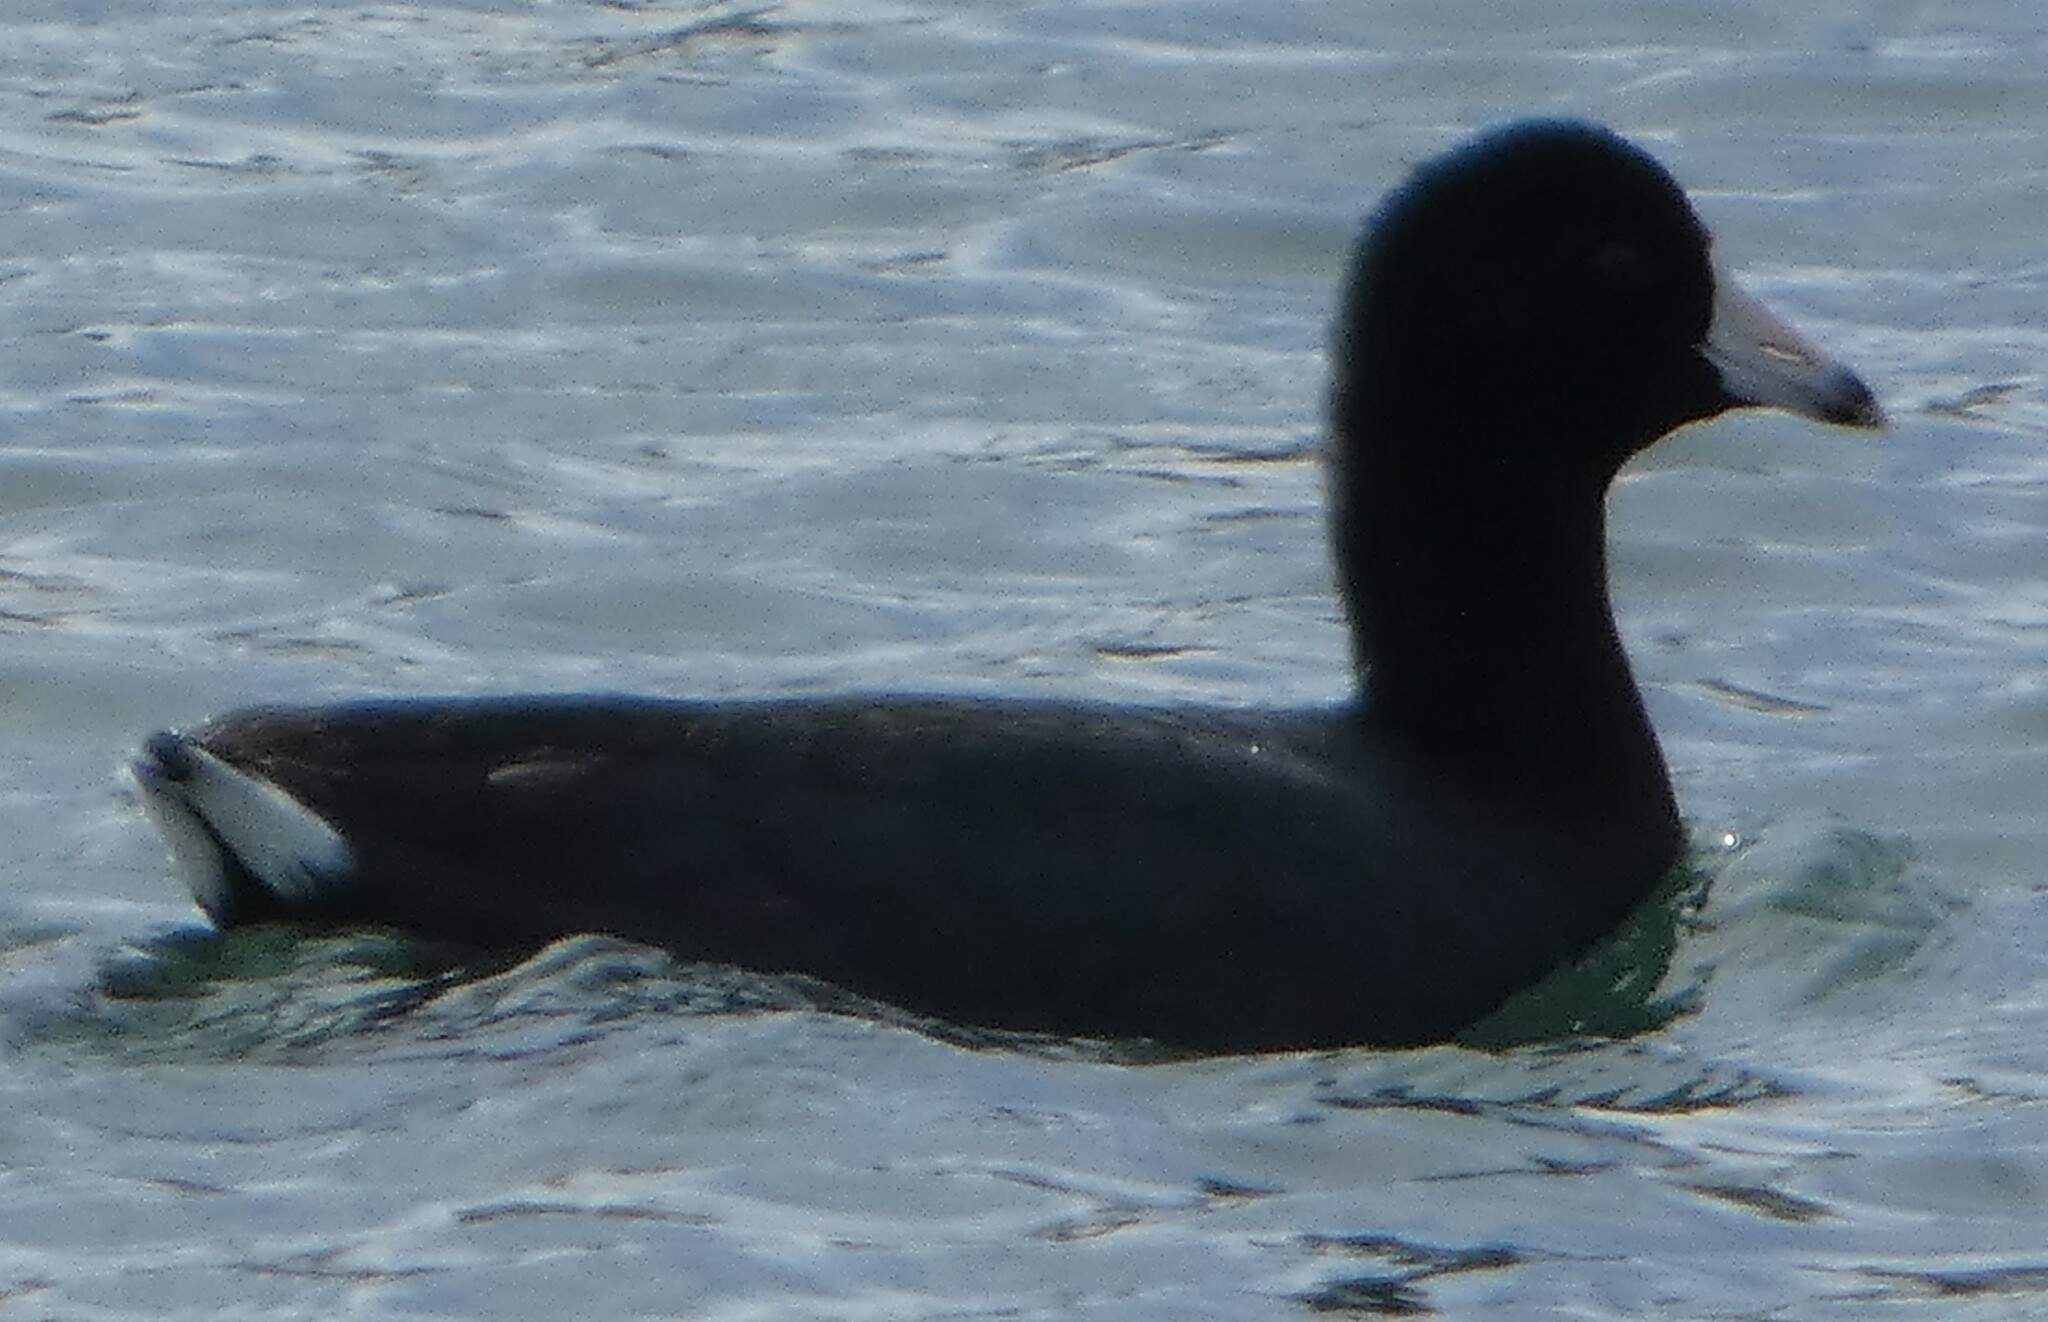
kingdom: Animalia
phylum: Chordata
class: Aves
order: Gruiformes
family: Rallidae
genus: Fulica
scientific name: Fulica americana
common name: American coot
